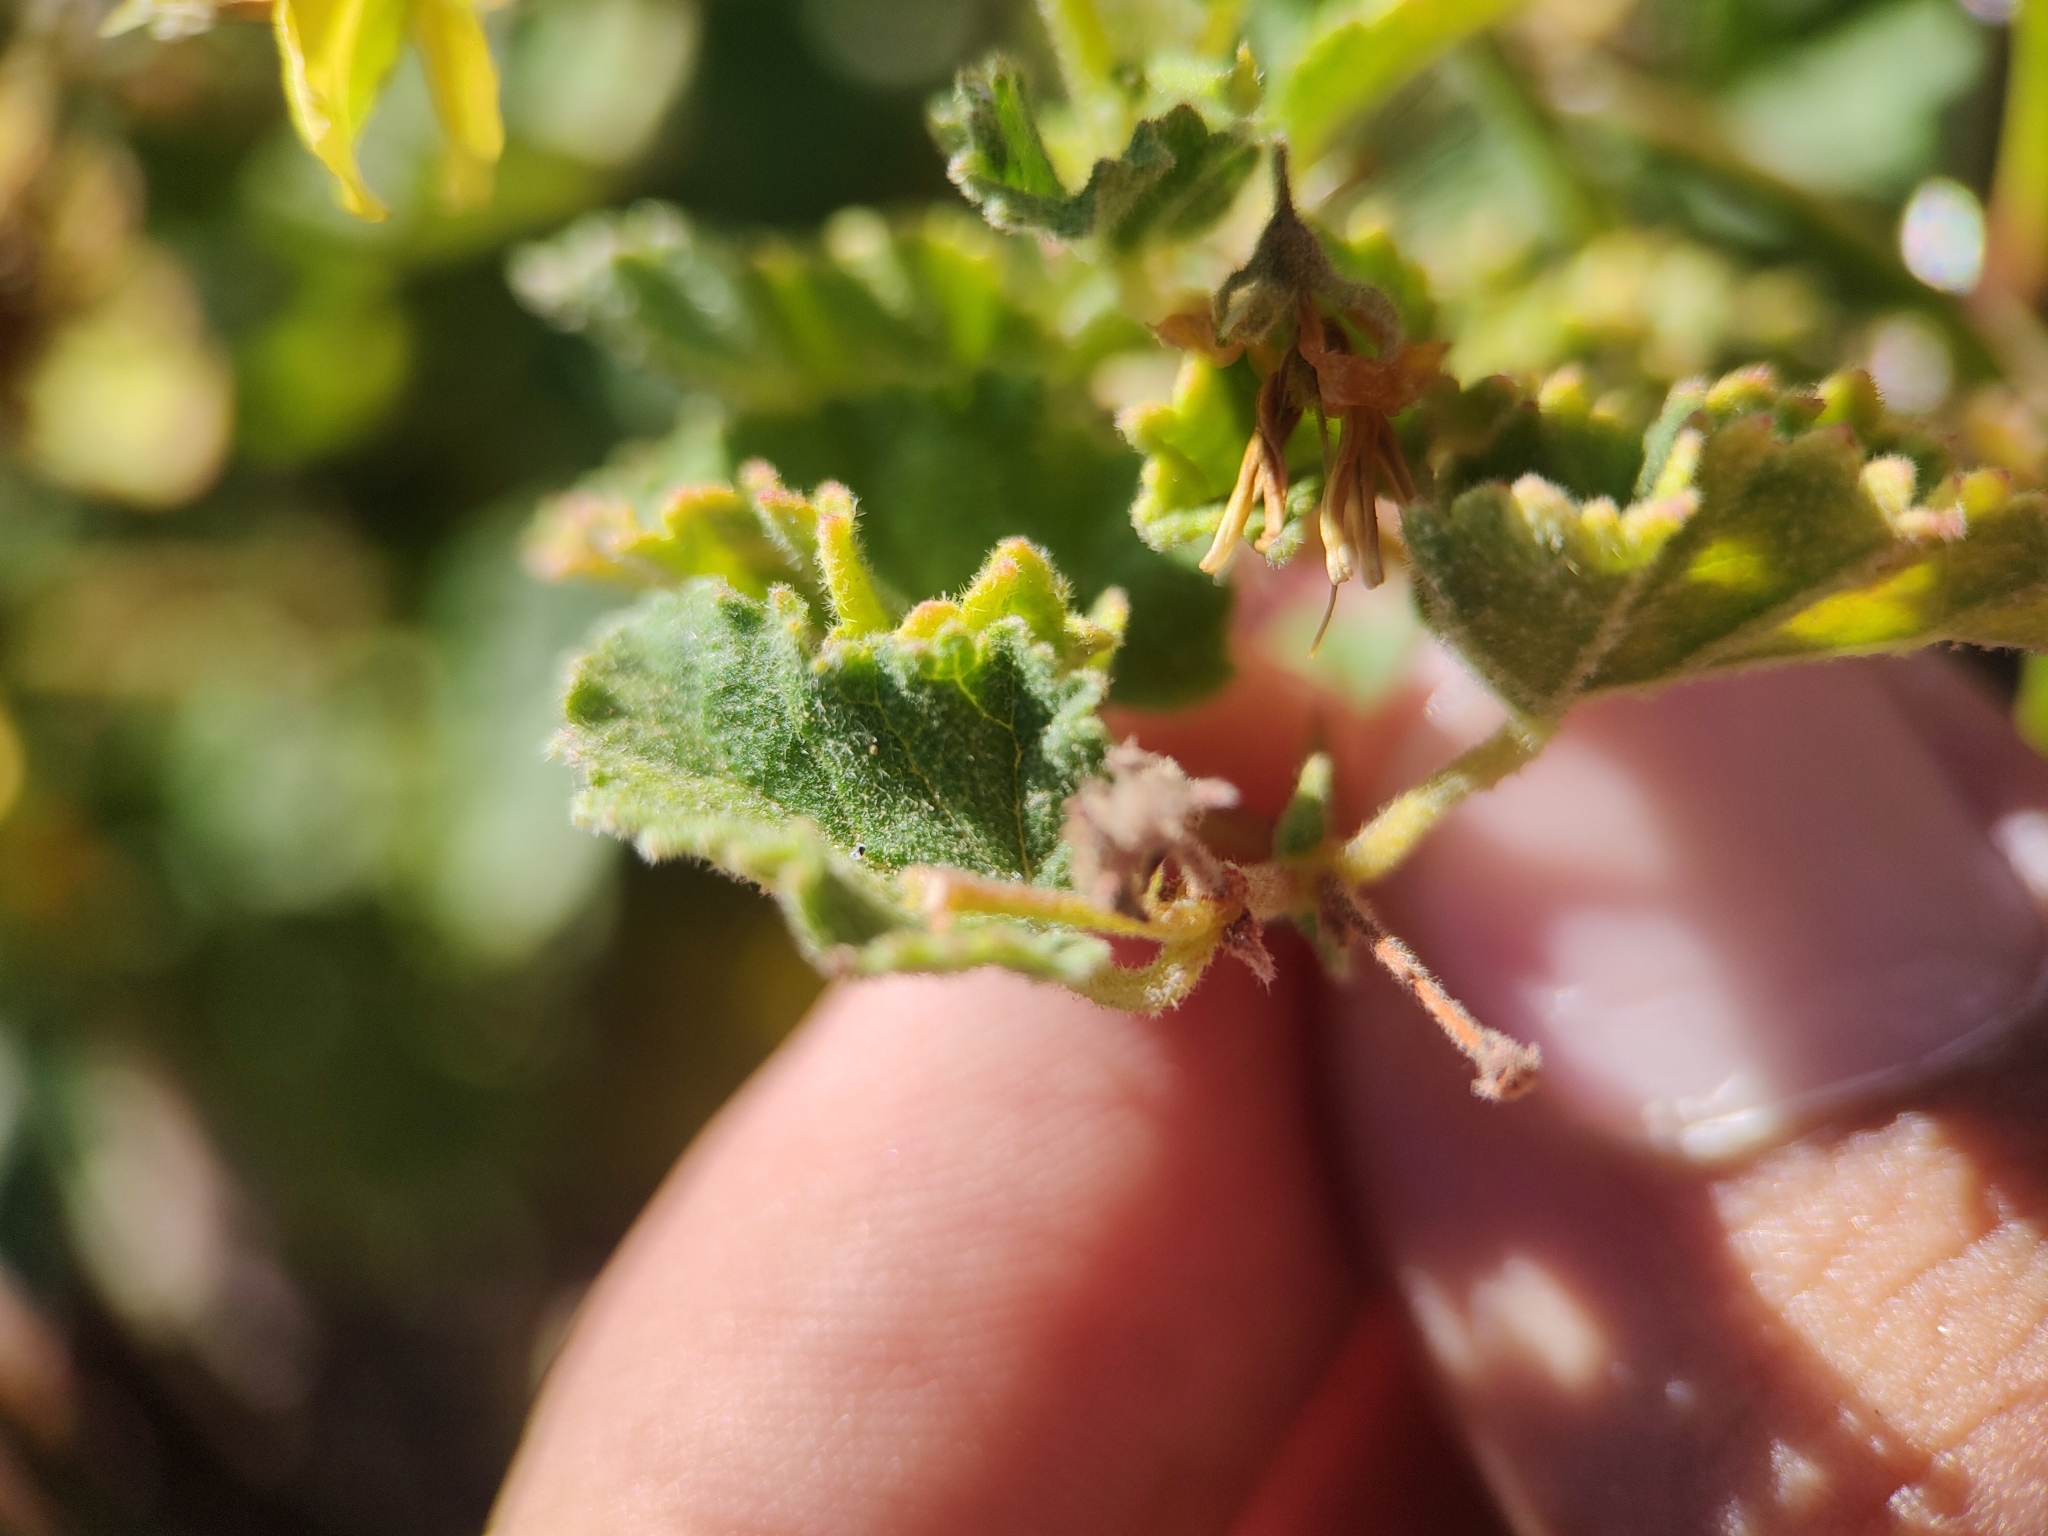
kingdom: Plantae
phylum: Tracheophyta
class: Magnoliopsida
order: Malvales
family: Malvaceae
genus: Hermannia
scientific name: Hermannia palmeri
